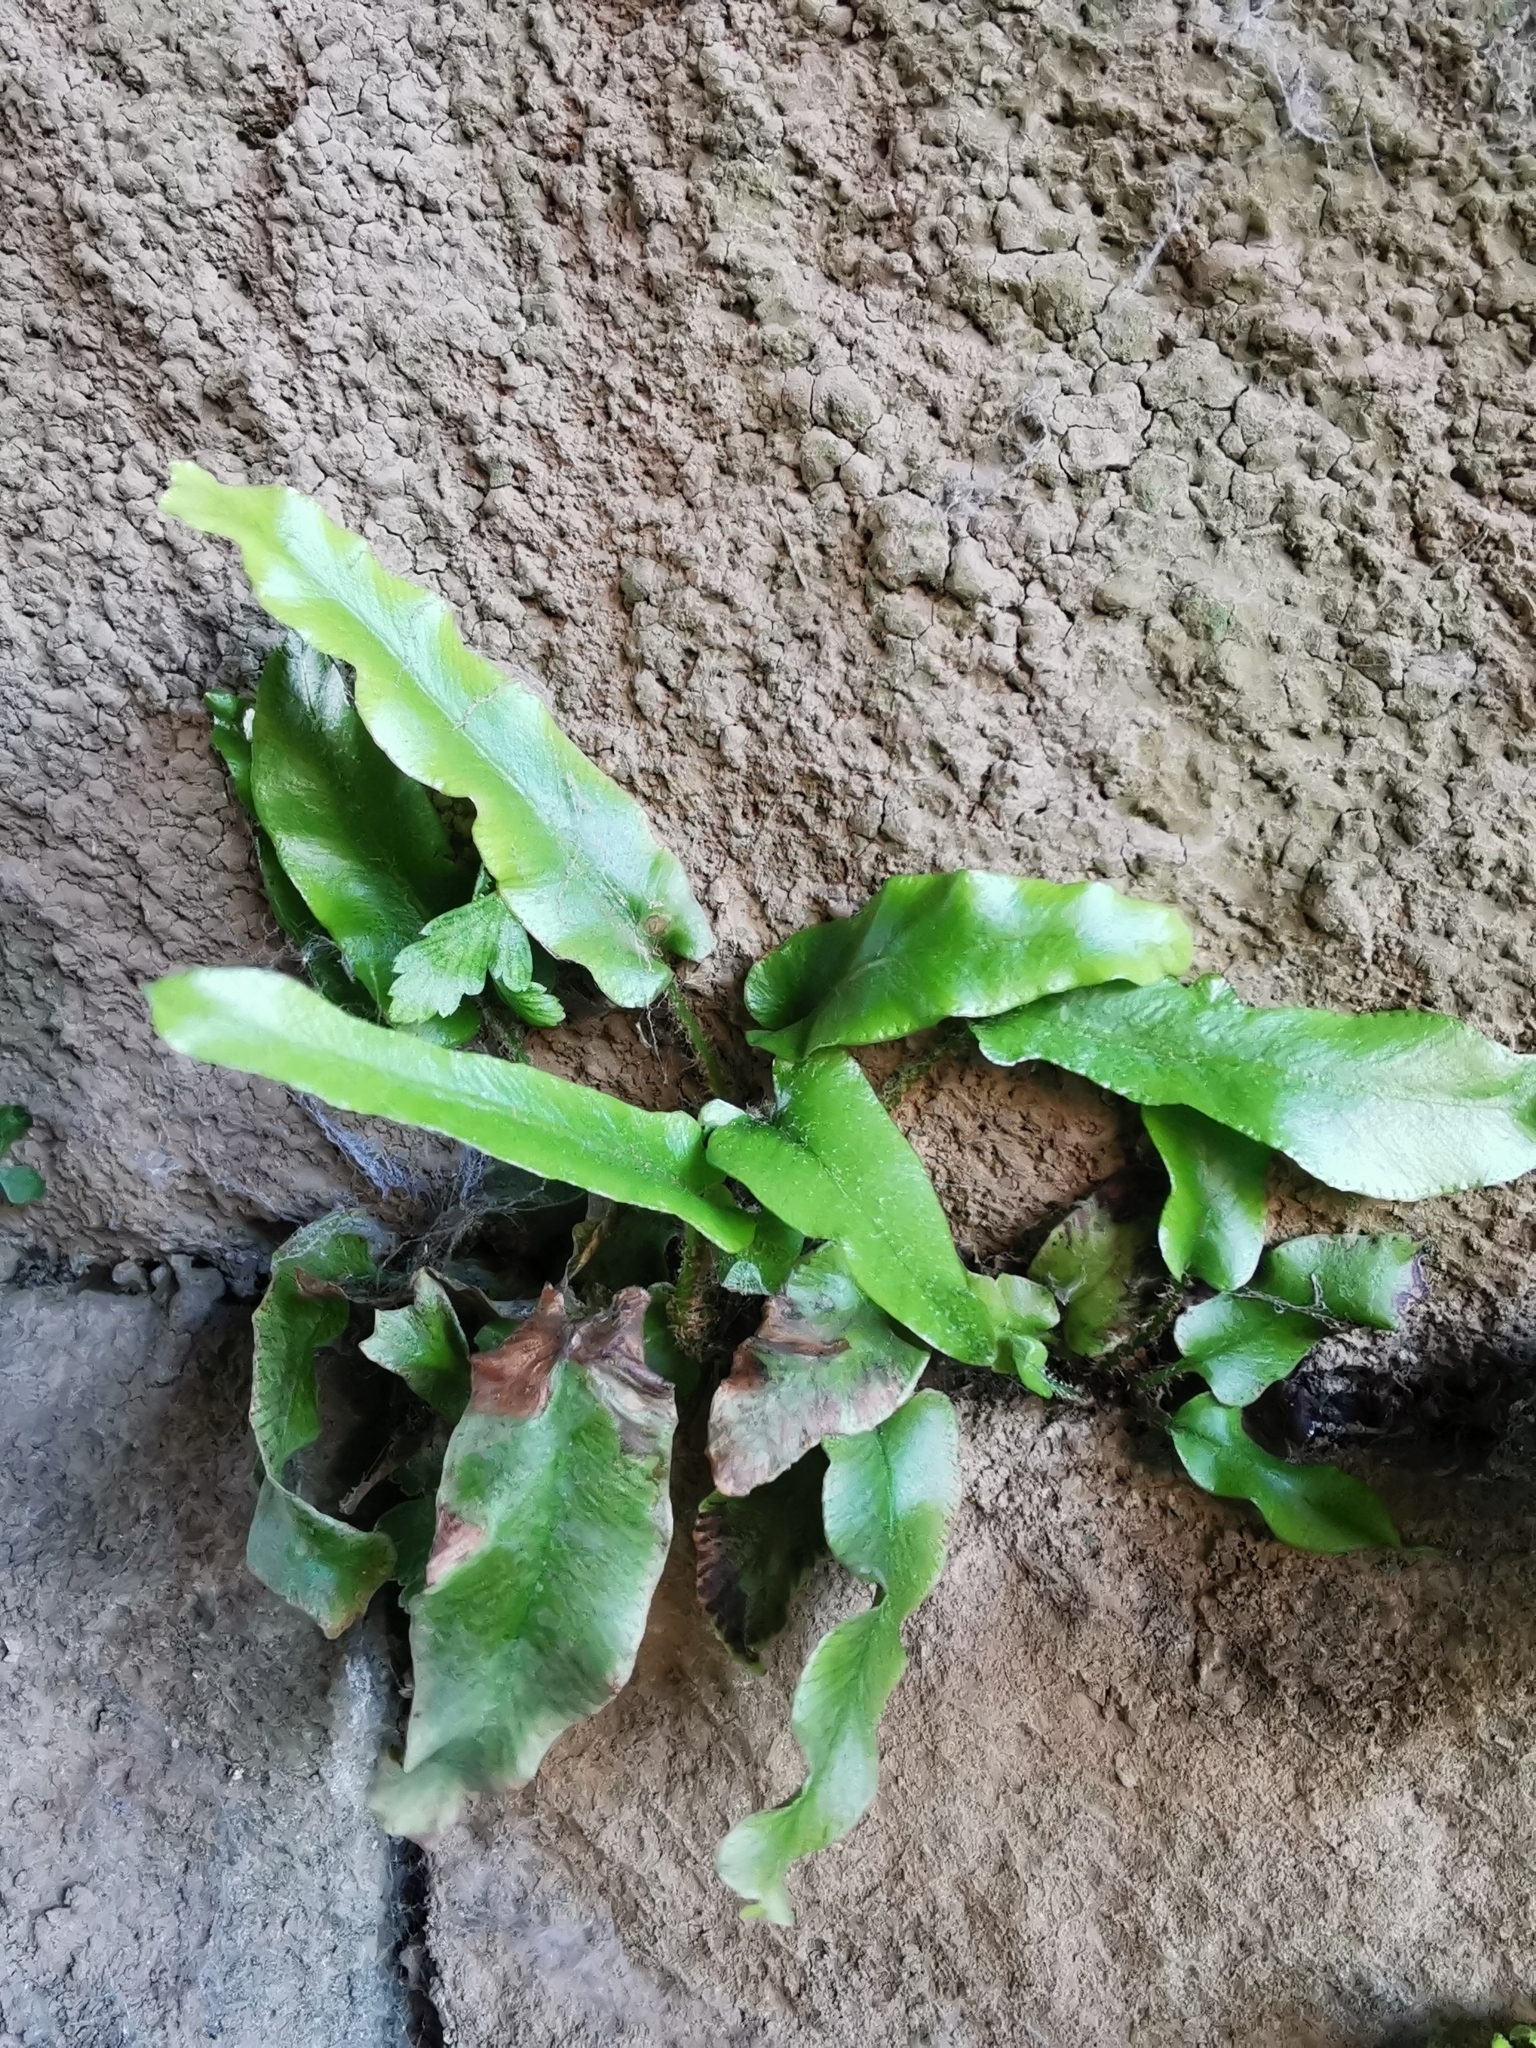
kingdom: Plantae
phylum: Tracheophyta
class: Polypodiopsida
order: Polypodiales
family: Aspleniaceae
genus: Asplenium
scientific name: Asplenium scolopendrium
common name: Hart's-tongue fern
